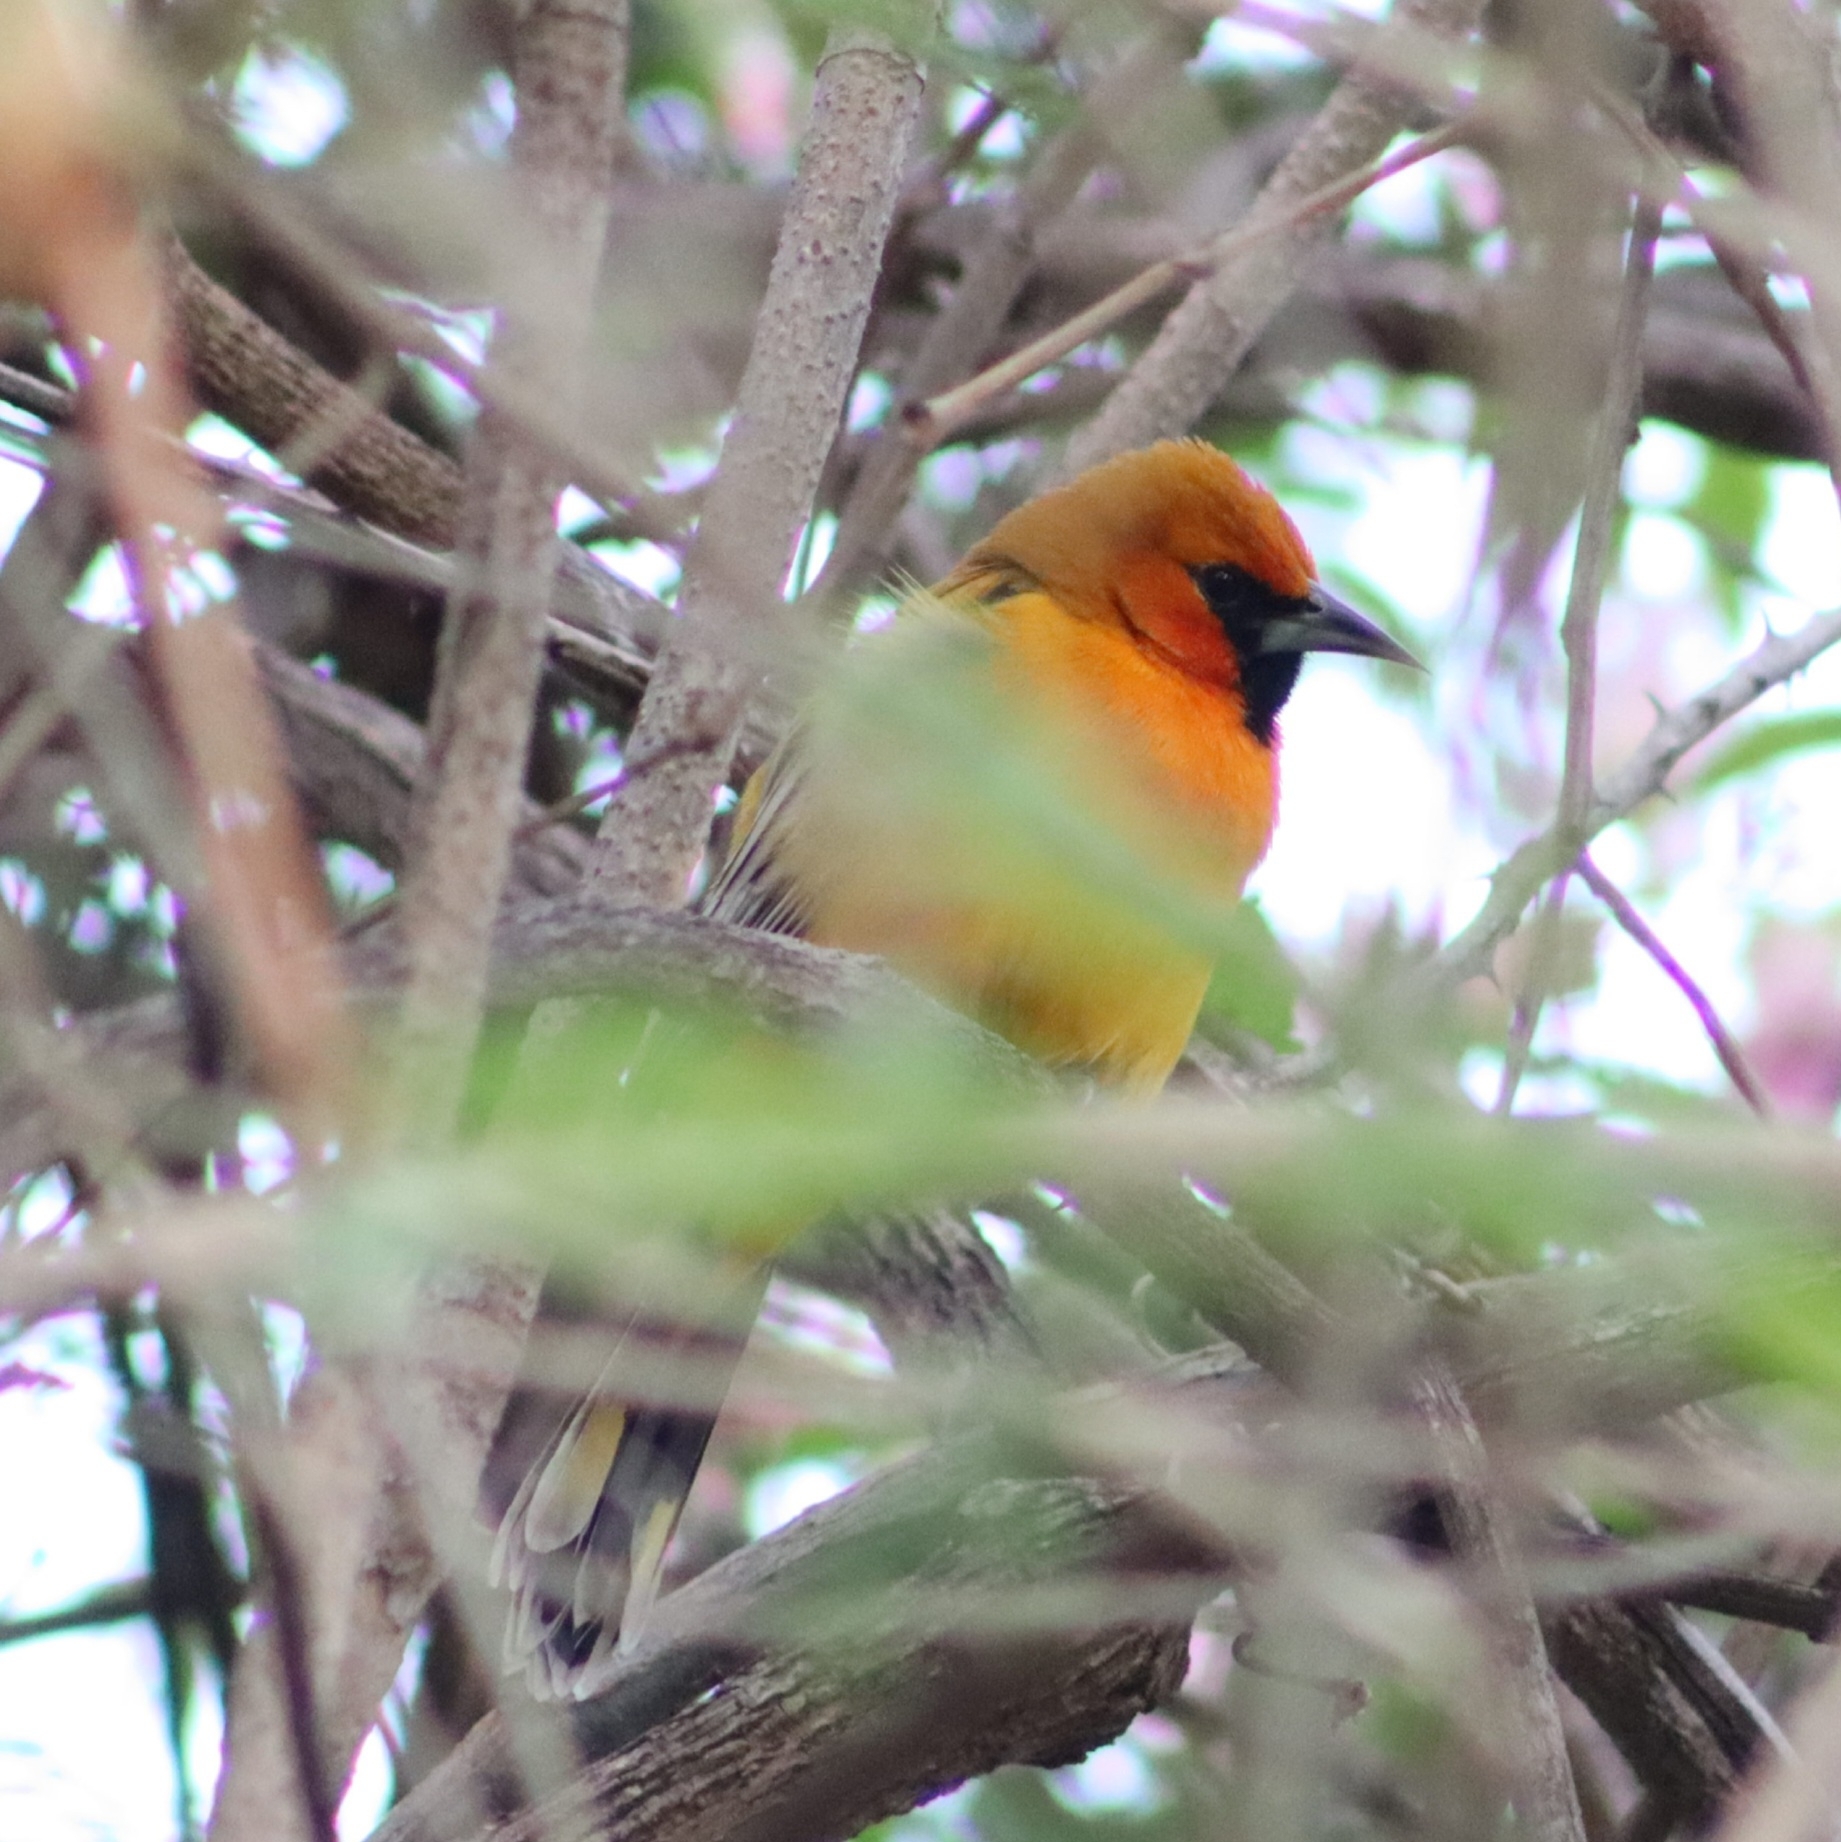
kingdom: Animalia
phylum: Chordata
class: Aves
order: Passeriformes
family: Icteridae
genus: Icterus
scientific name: Icterus pustulatus
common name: Streak-backed oriole
